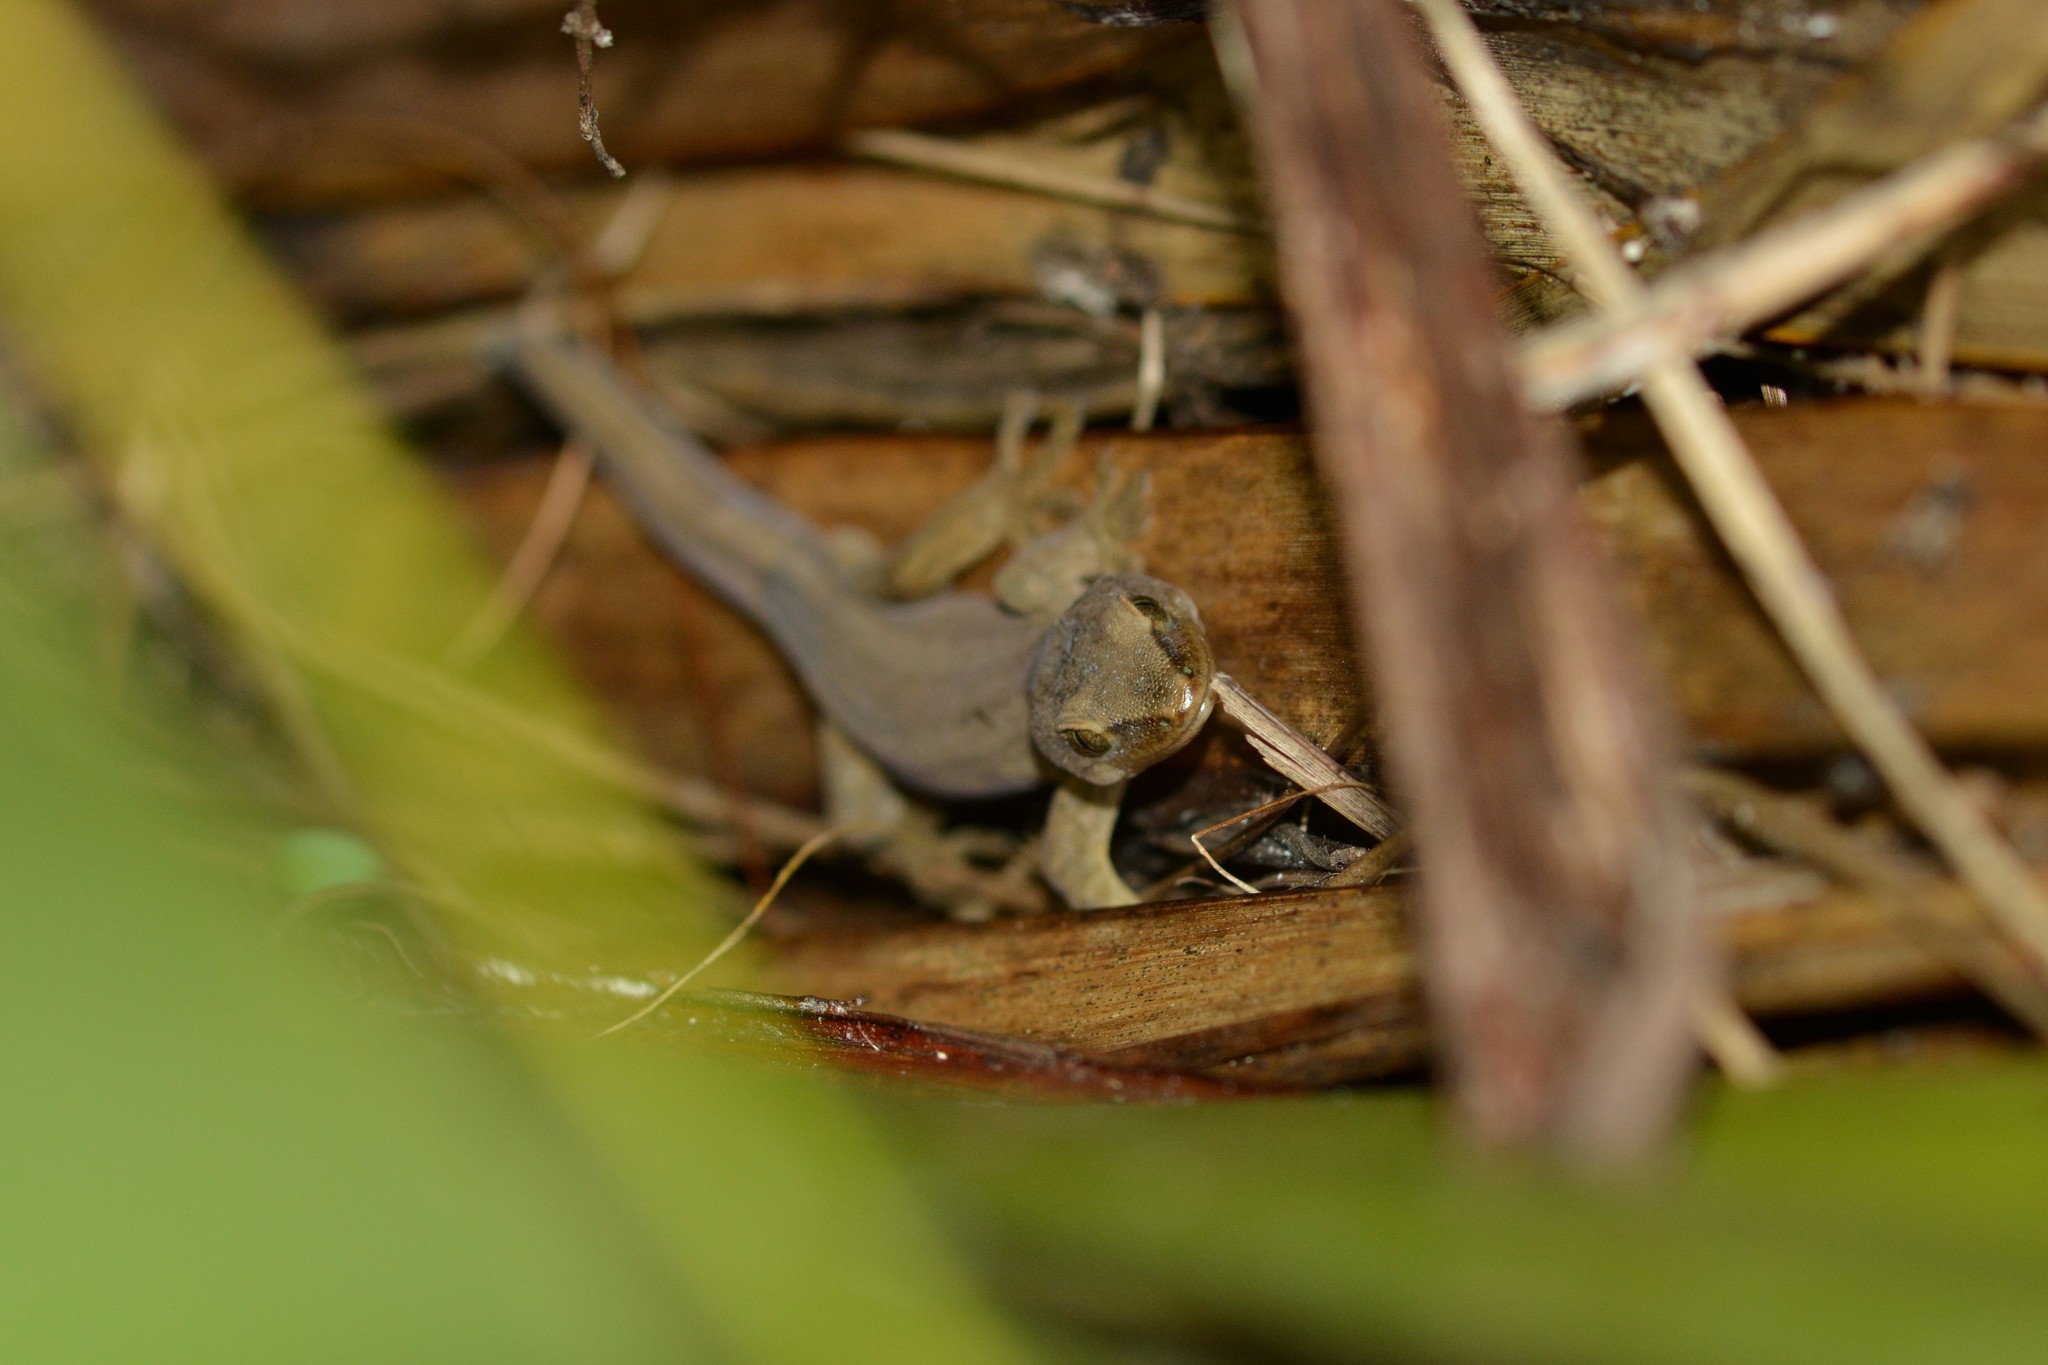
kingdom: Animalia
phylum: Chordata
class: Squamata
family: Diplodactylidae
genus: Woodworthia
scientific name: Woodworthia chrysosiretica
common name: Gold-striped gecko
